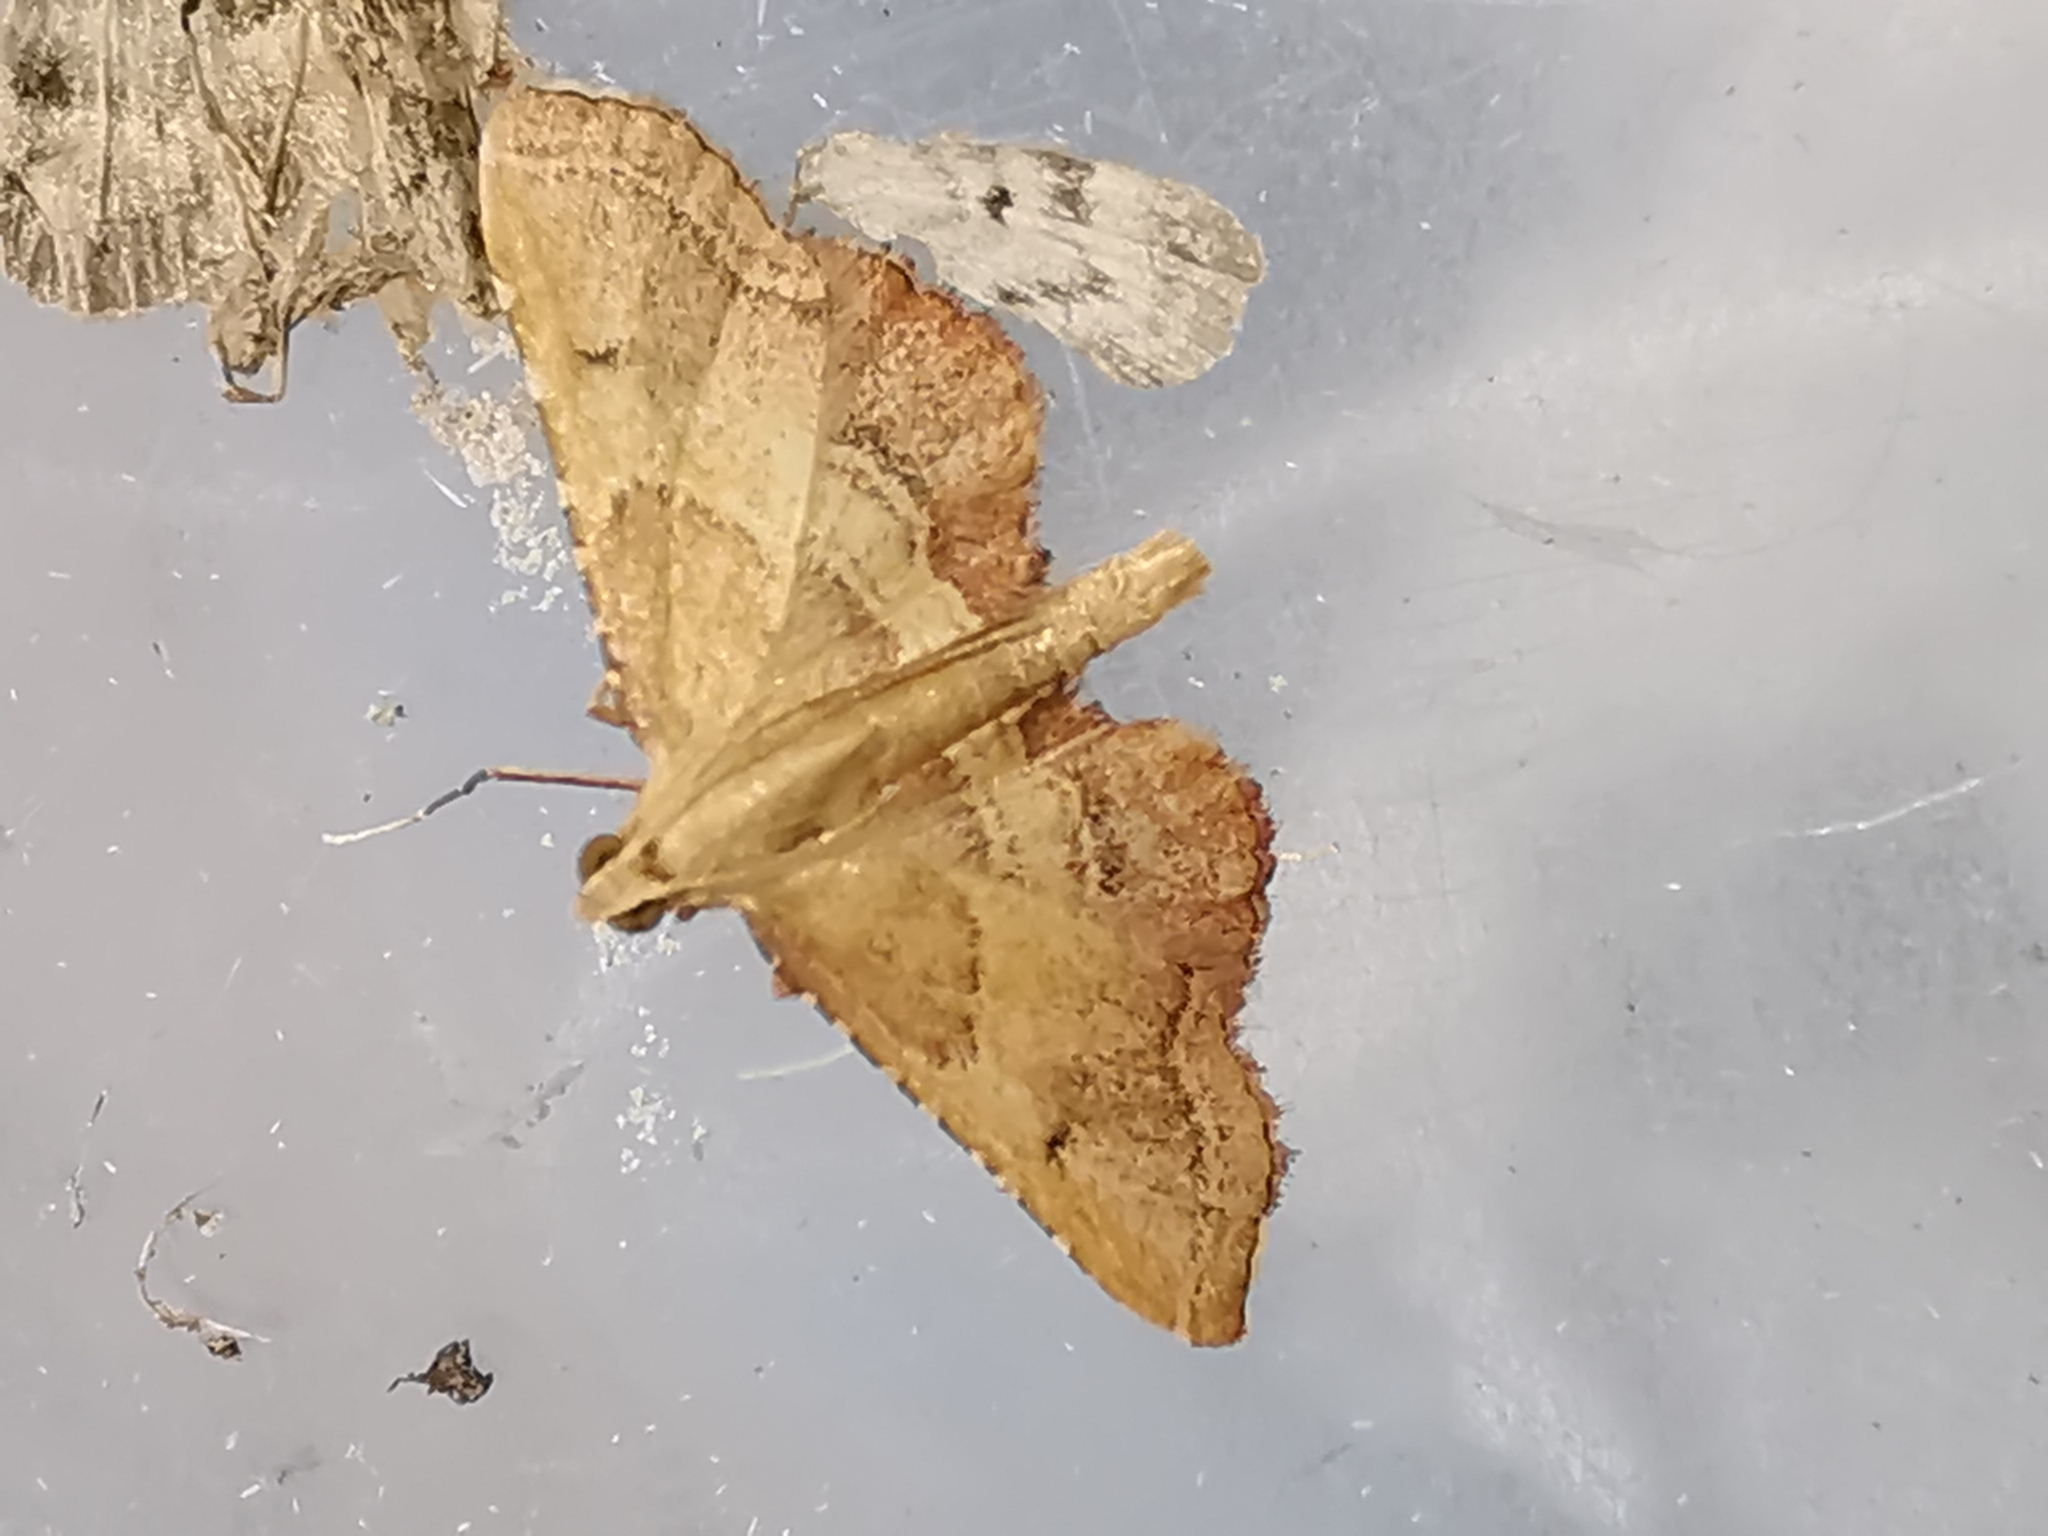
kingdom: Animalia
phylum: Arthropoda
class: Insecta
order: Lepidoptera
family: Pyralidae
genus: Endotricha
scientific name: Endotricha flammealis
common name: Rosy tabby
